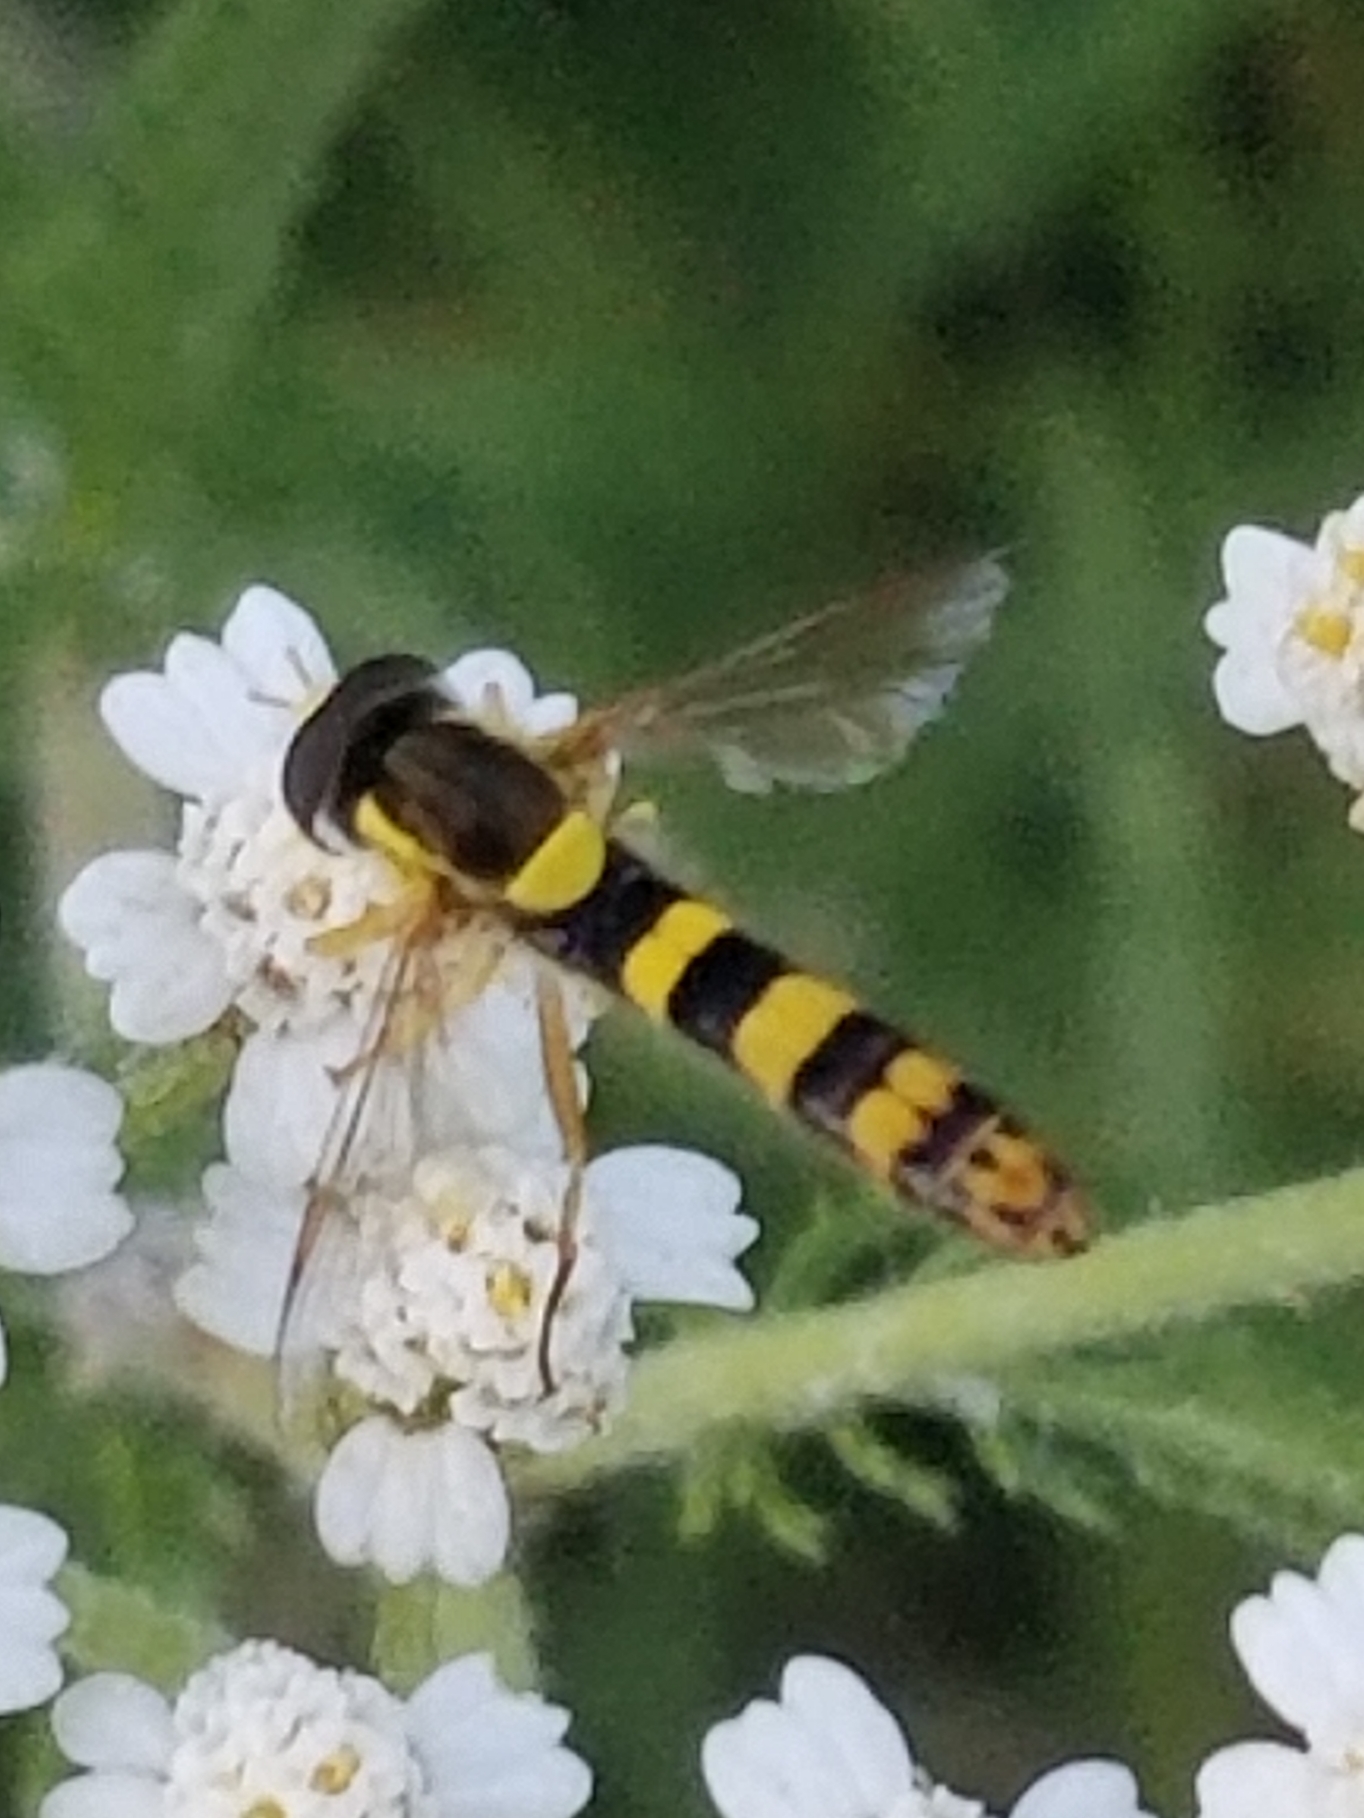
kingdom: Animalia
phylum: Arthropoda
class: Insecta
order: Diptera
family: Syrphidae
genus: Sphaerophoria
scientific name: Sphaerophoria
